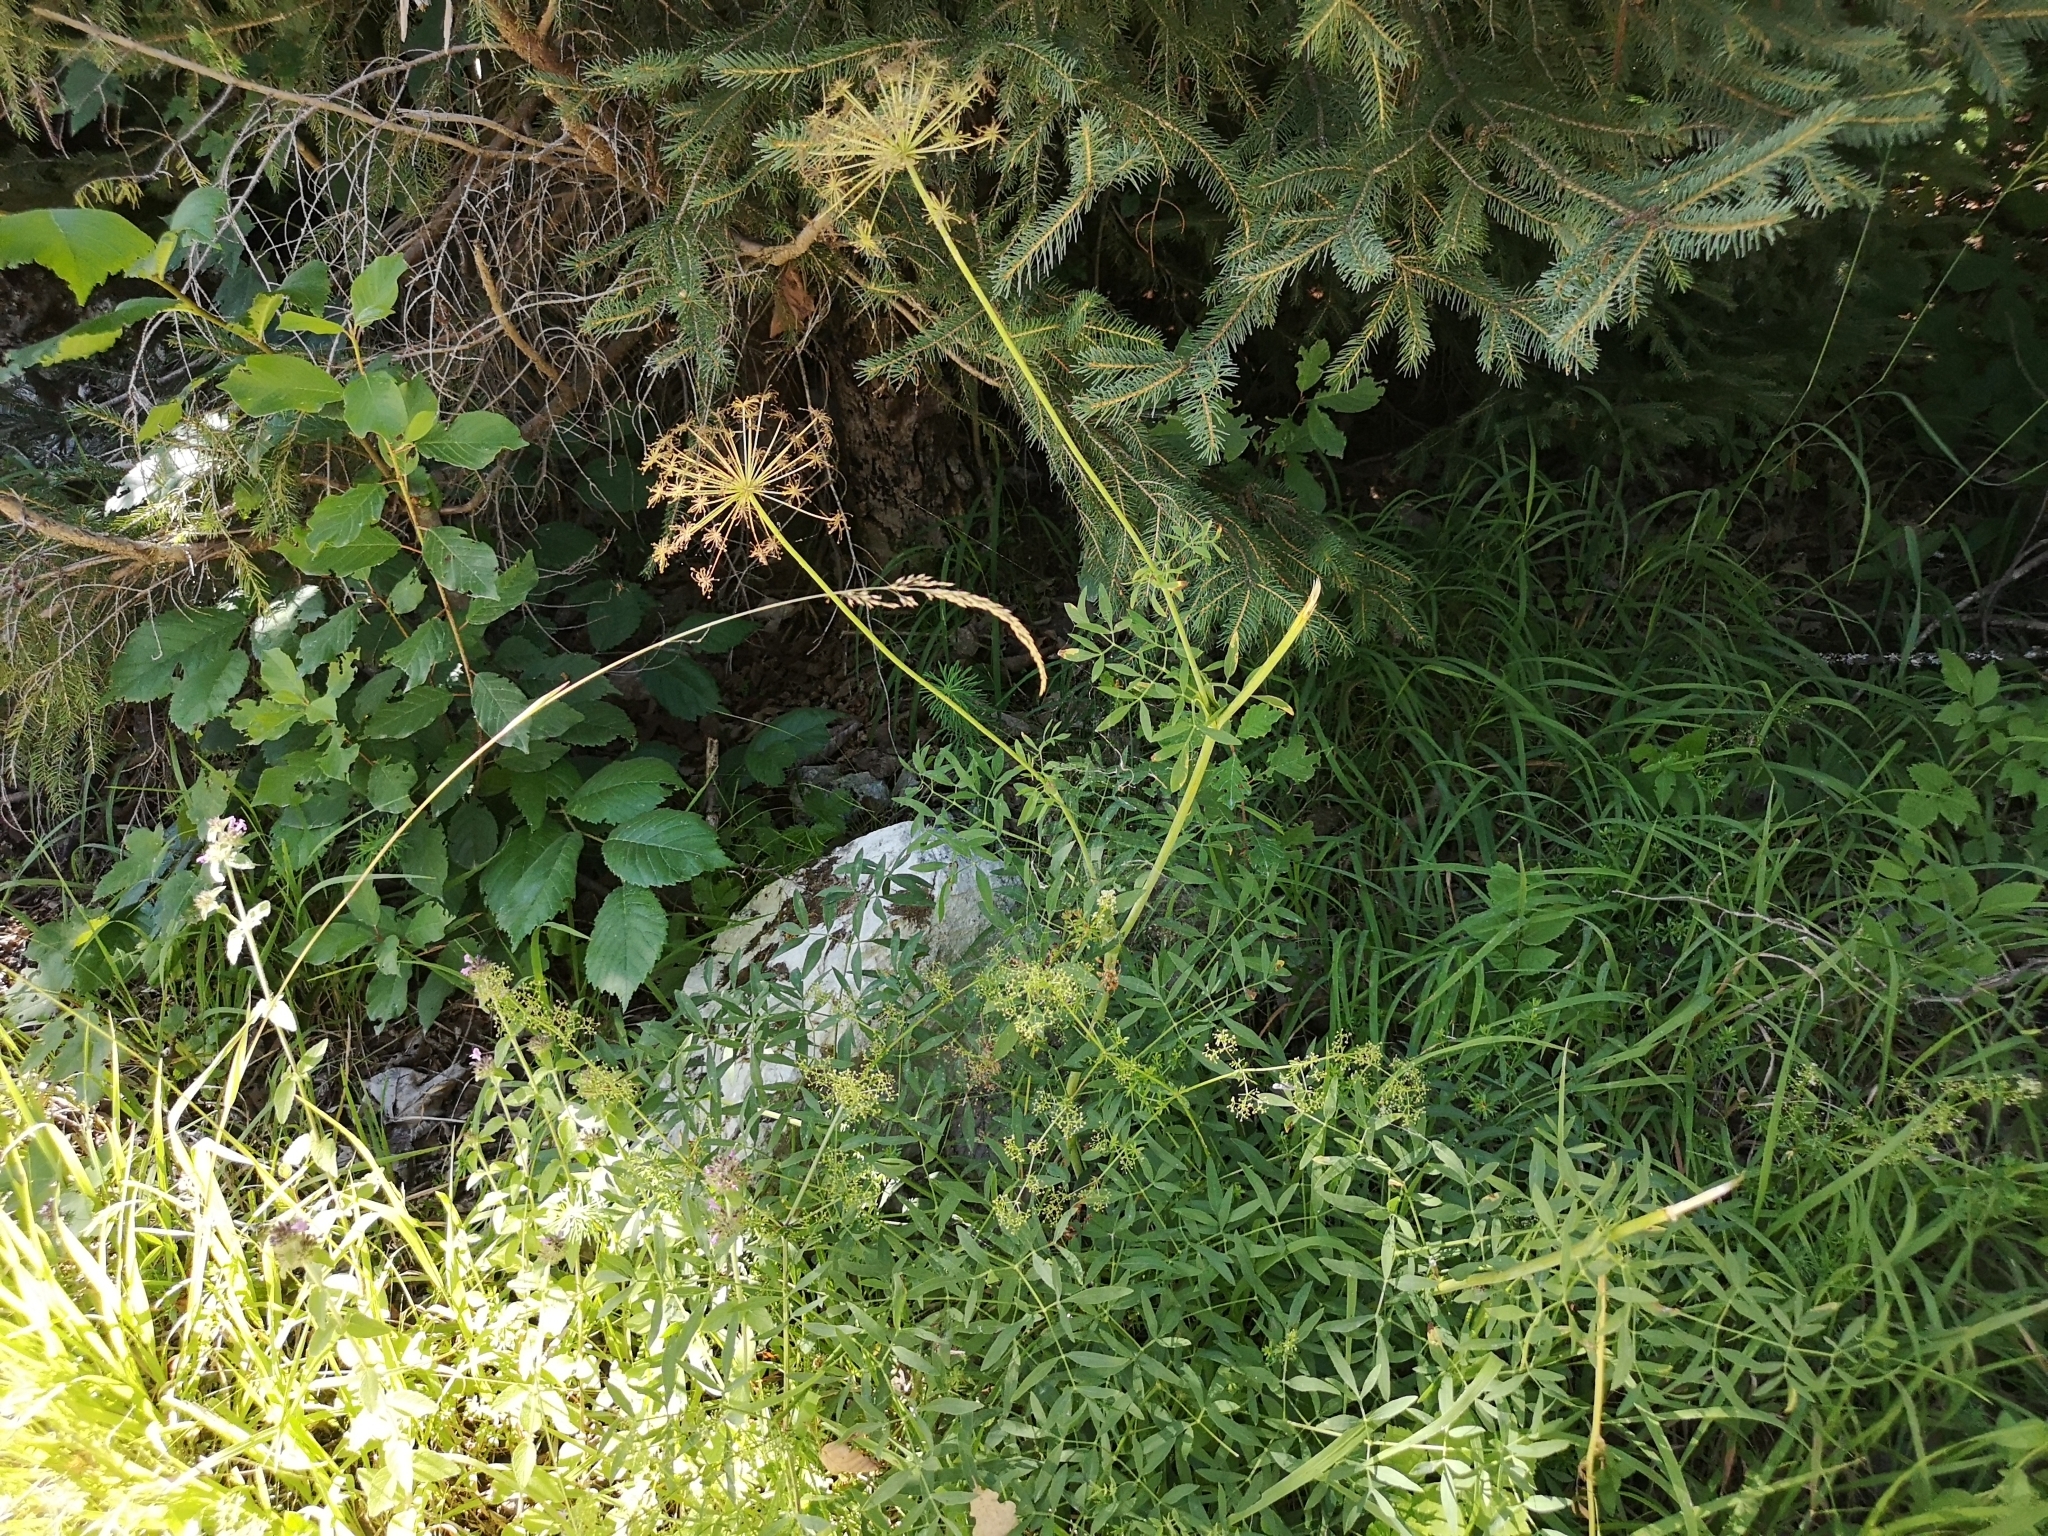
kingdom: Plantae
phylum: Tracheophyta
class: Magnoliopsida
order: Apiales
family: Apiaceae
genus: Siler
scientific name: Siler montanum
